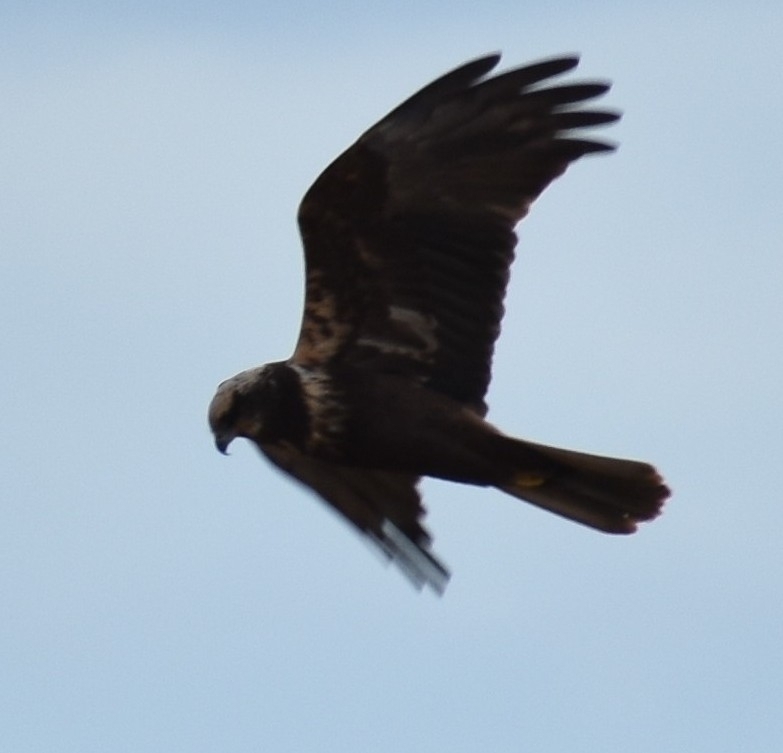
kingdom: Animalia
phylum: Chordata
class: Aves
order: Accipitriformes
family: Accipitridae
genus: Circus
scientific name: Circus aeruginosus
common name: Western marsh harrier
